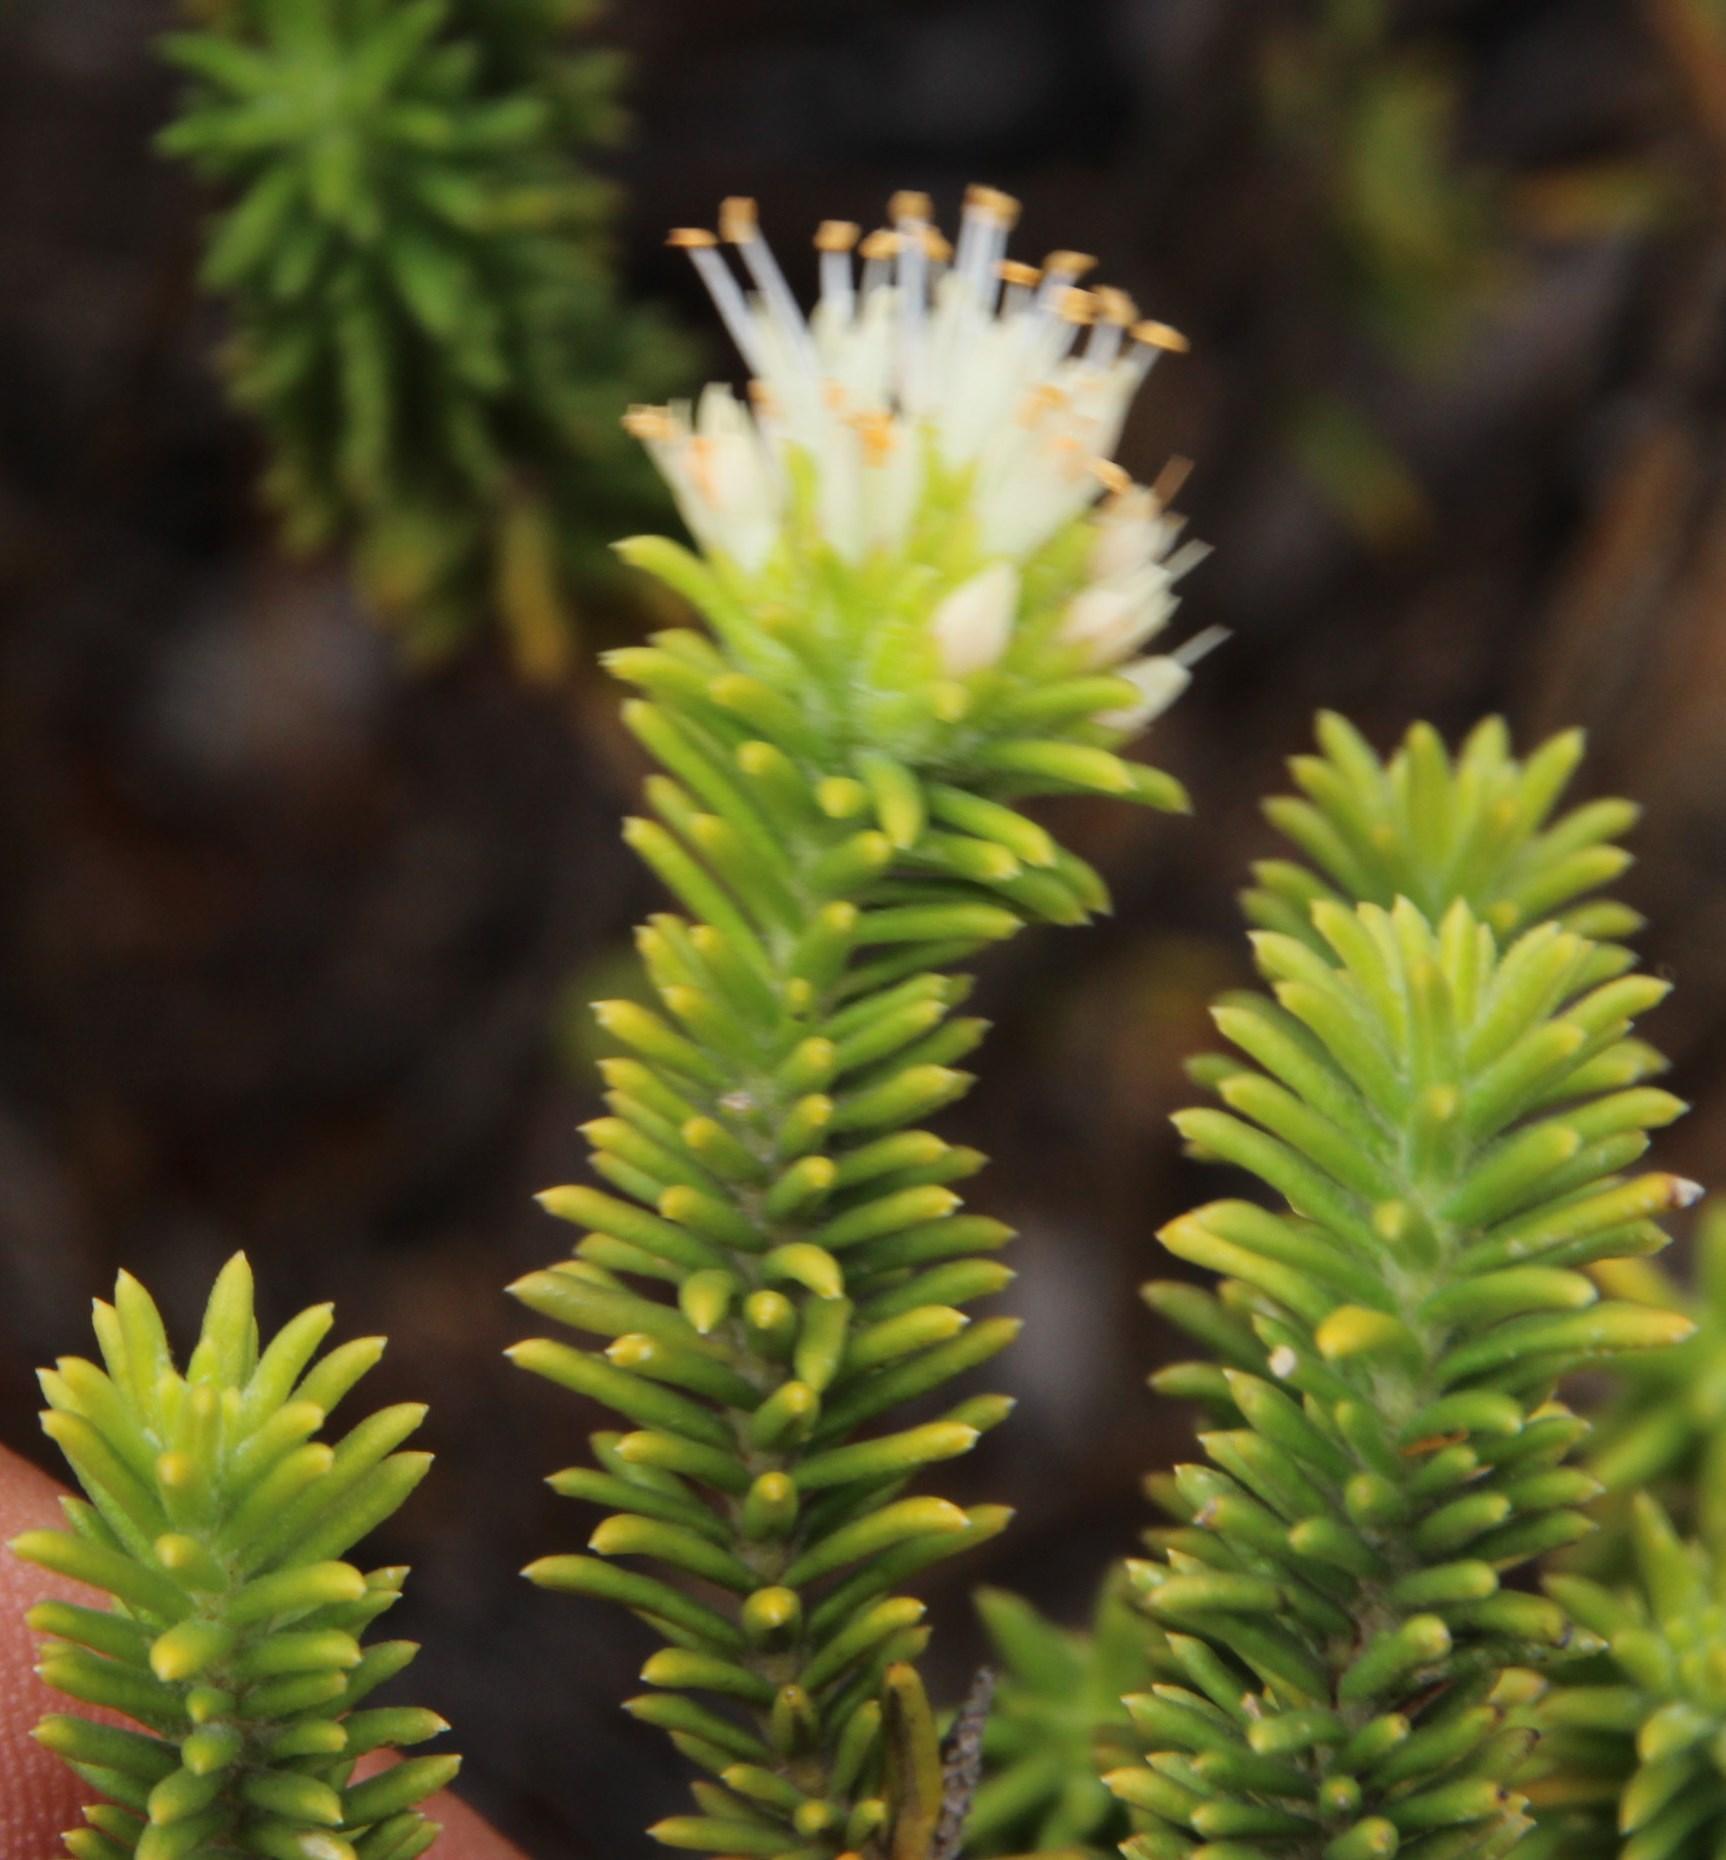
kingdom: Plantae
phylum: Tracheophyta
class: Magnoliopsida
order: Lamiales
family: Stilbaceae
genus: Campylostachys
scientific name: Campylostachys cernua
